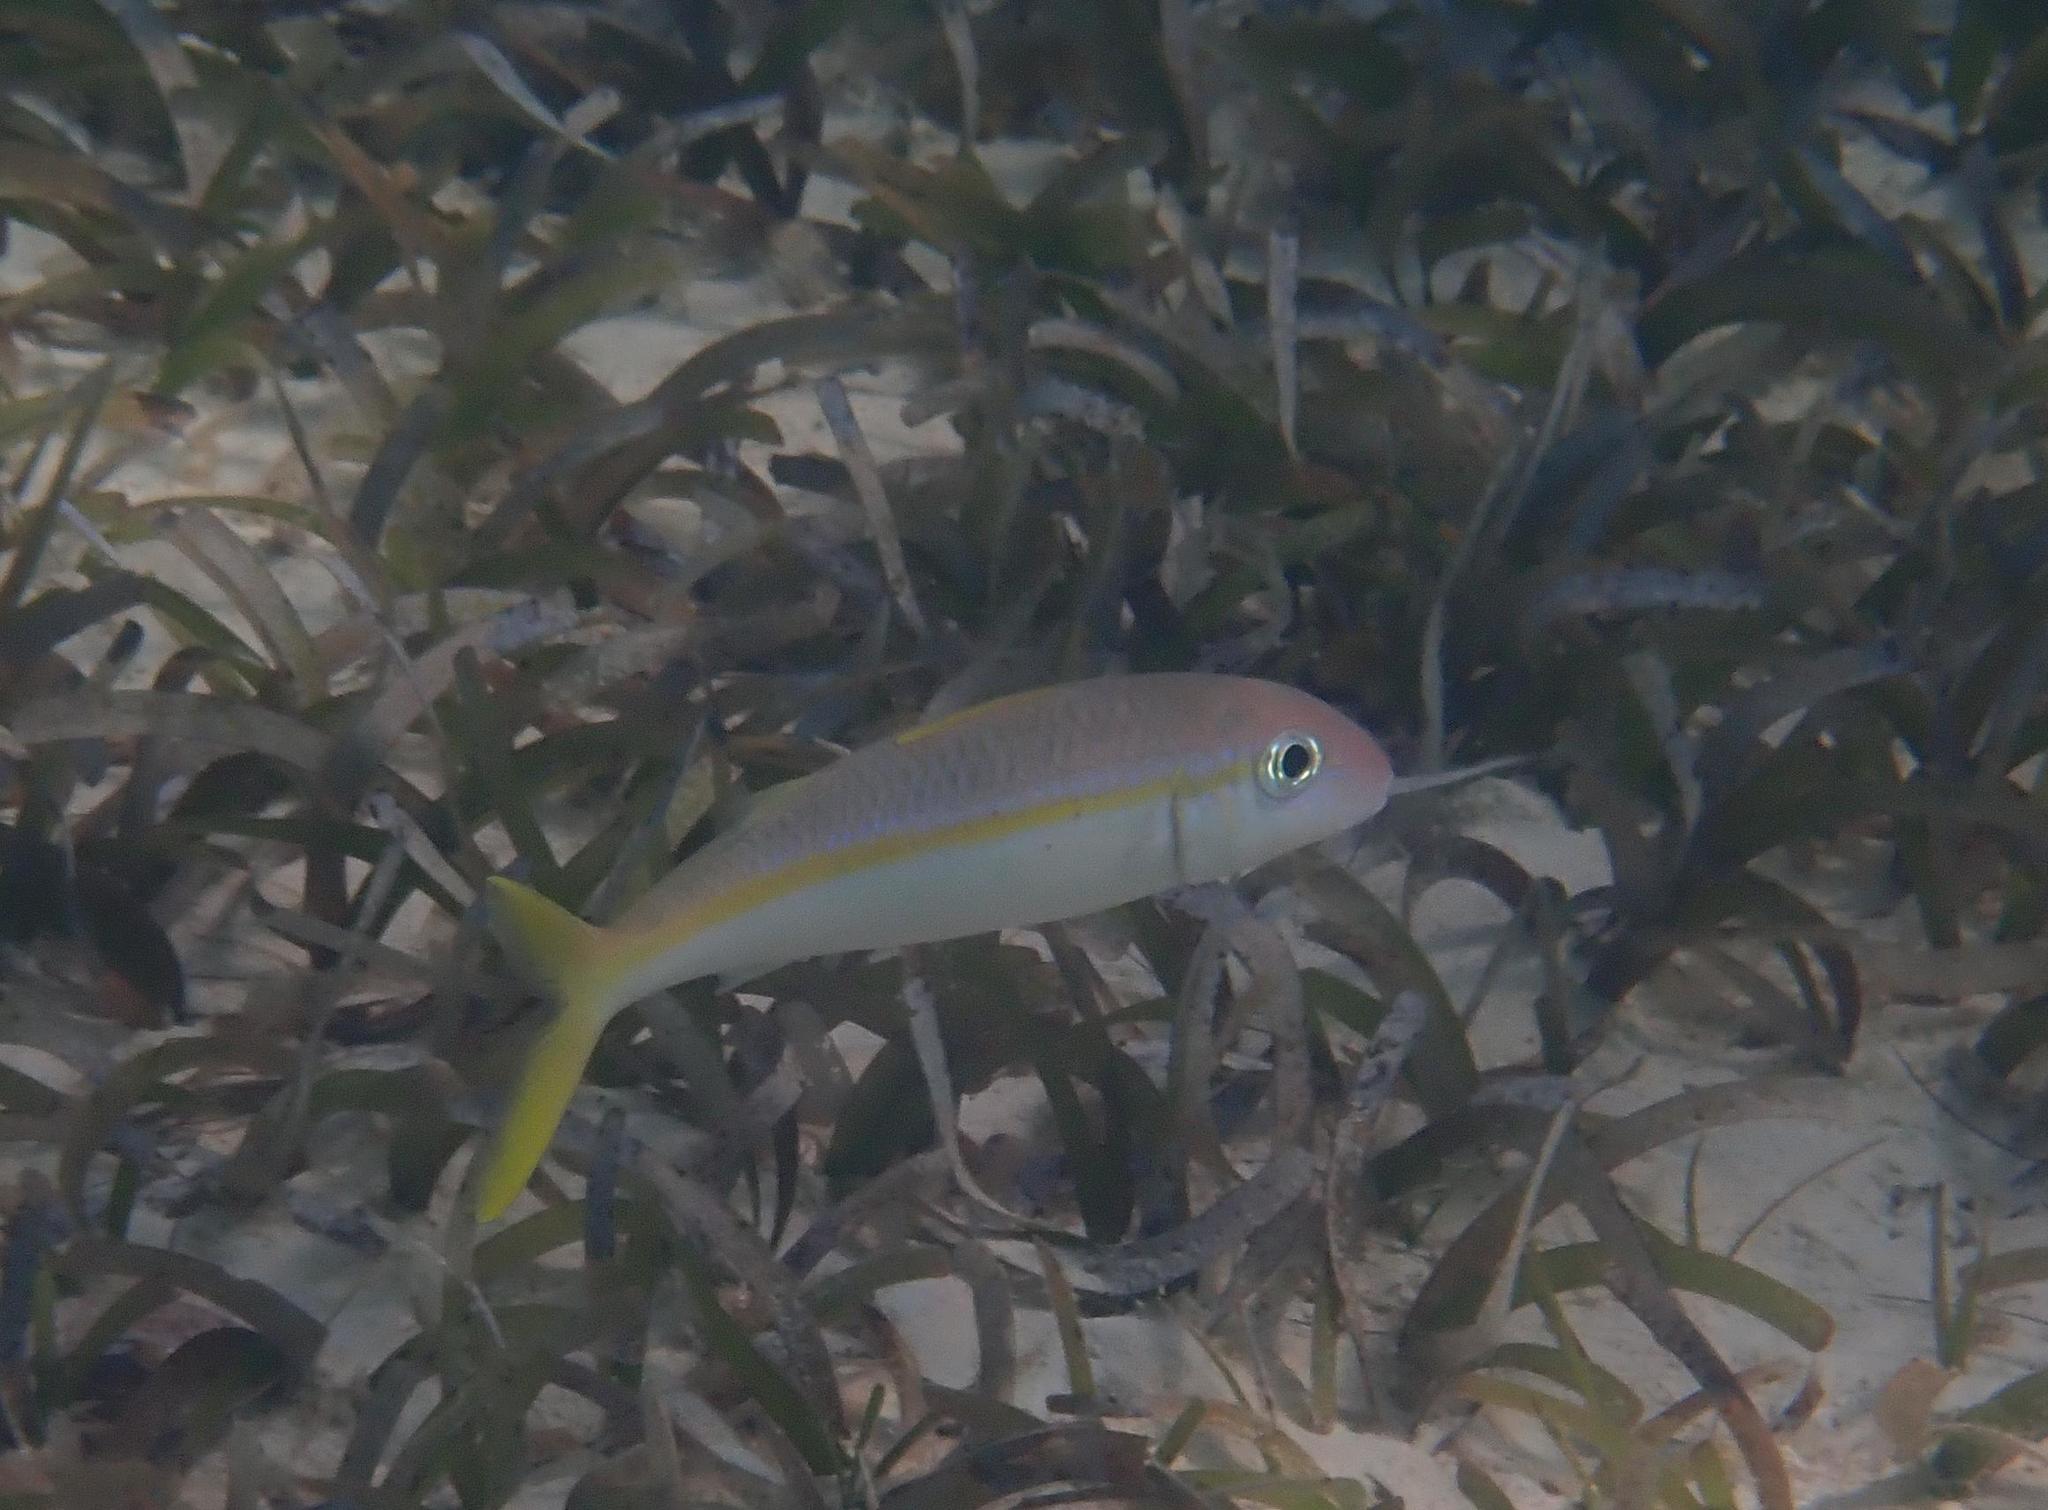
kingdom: Animalia
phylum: Chordata
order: Perciformes
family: Mullidae
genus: Mulloidichthys
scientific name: Mulloidichthys martinicus
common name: Yellow goatfish
